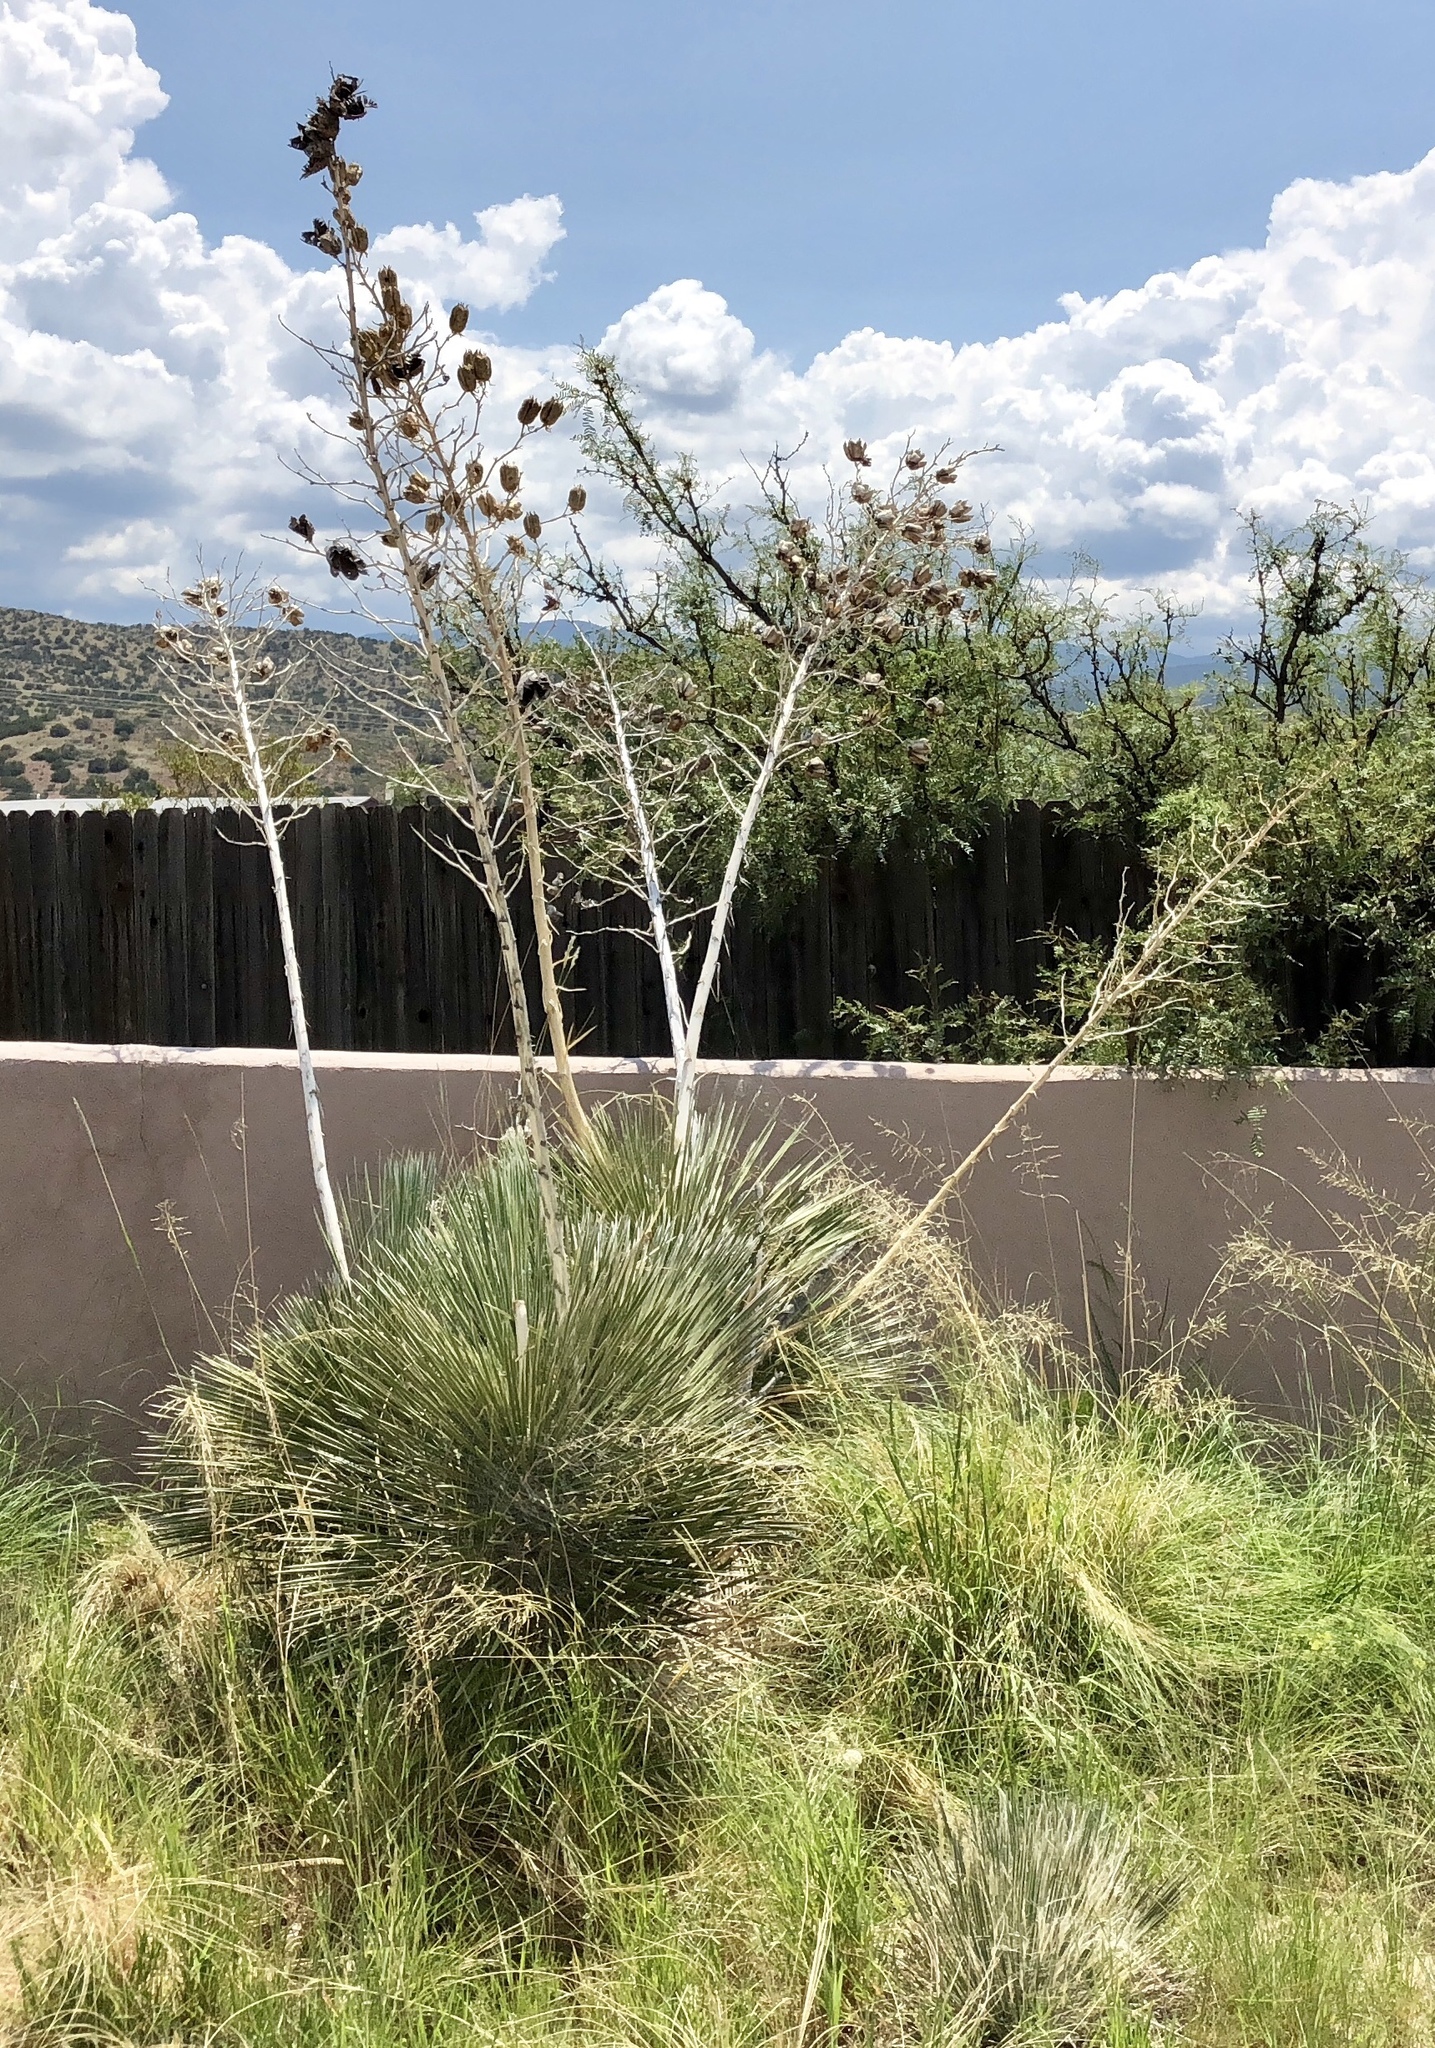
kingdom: Plantae
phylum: Tracheophyta
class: Liliopsida
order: Asparagales
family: Asparagaceae
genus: Yucca
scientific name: Yucca elata
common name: Palmella
